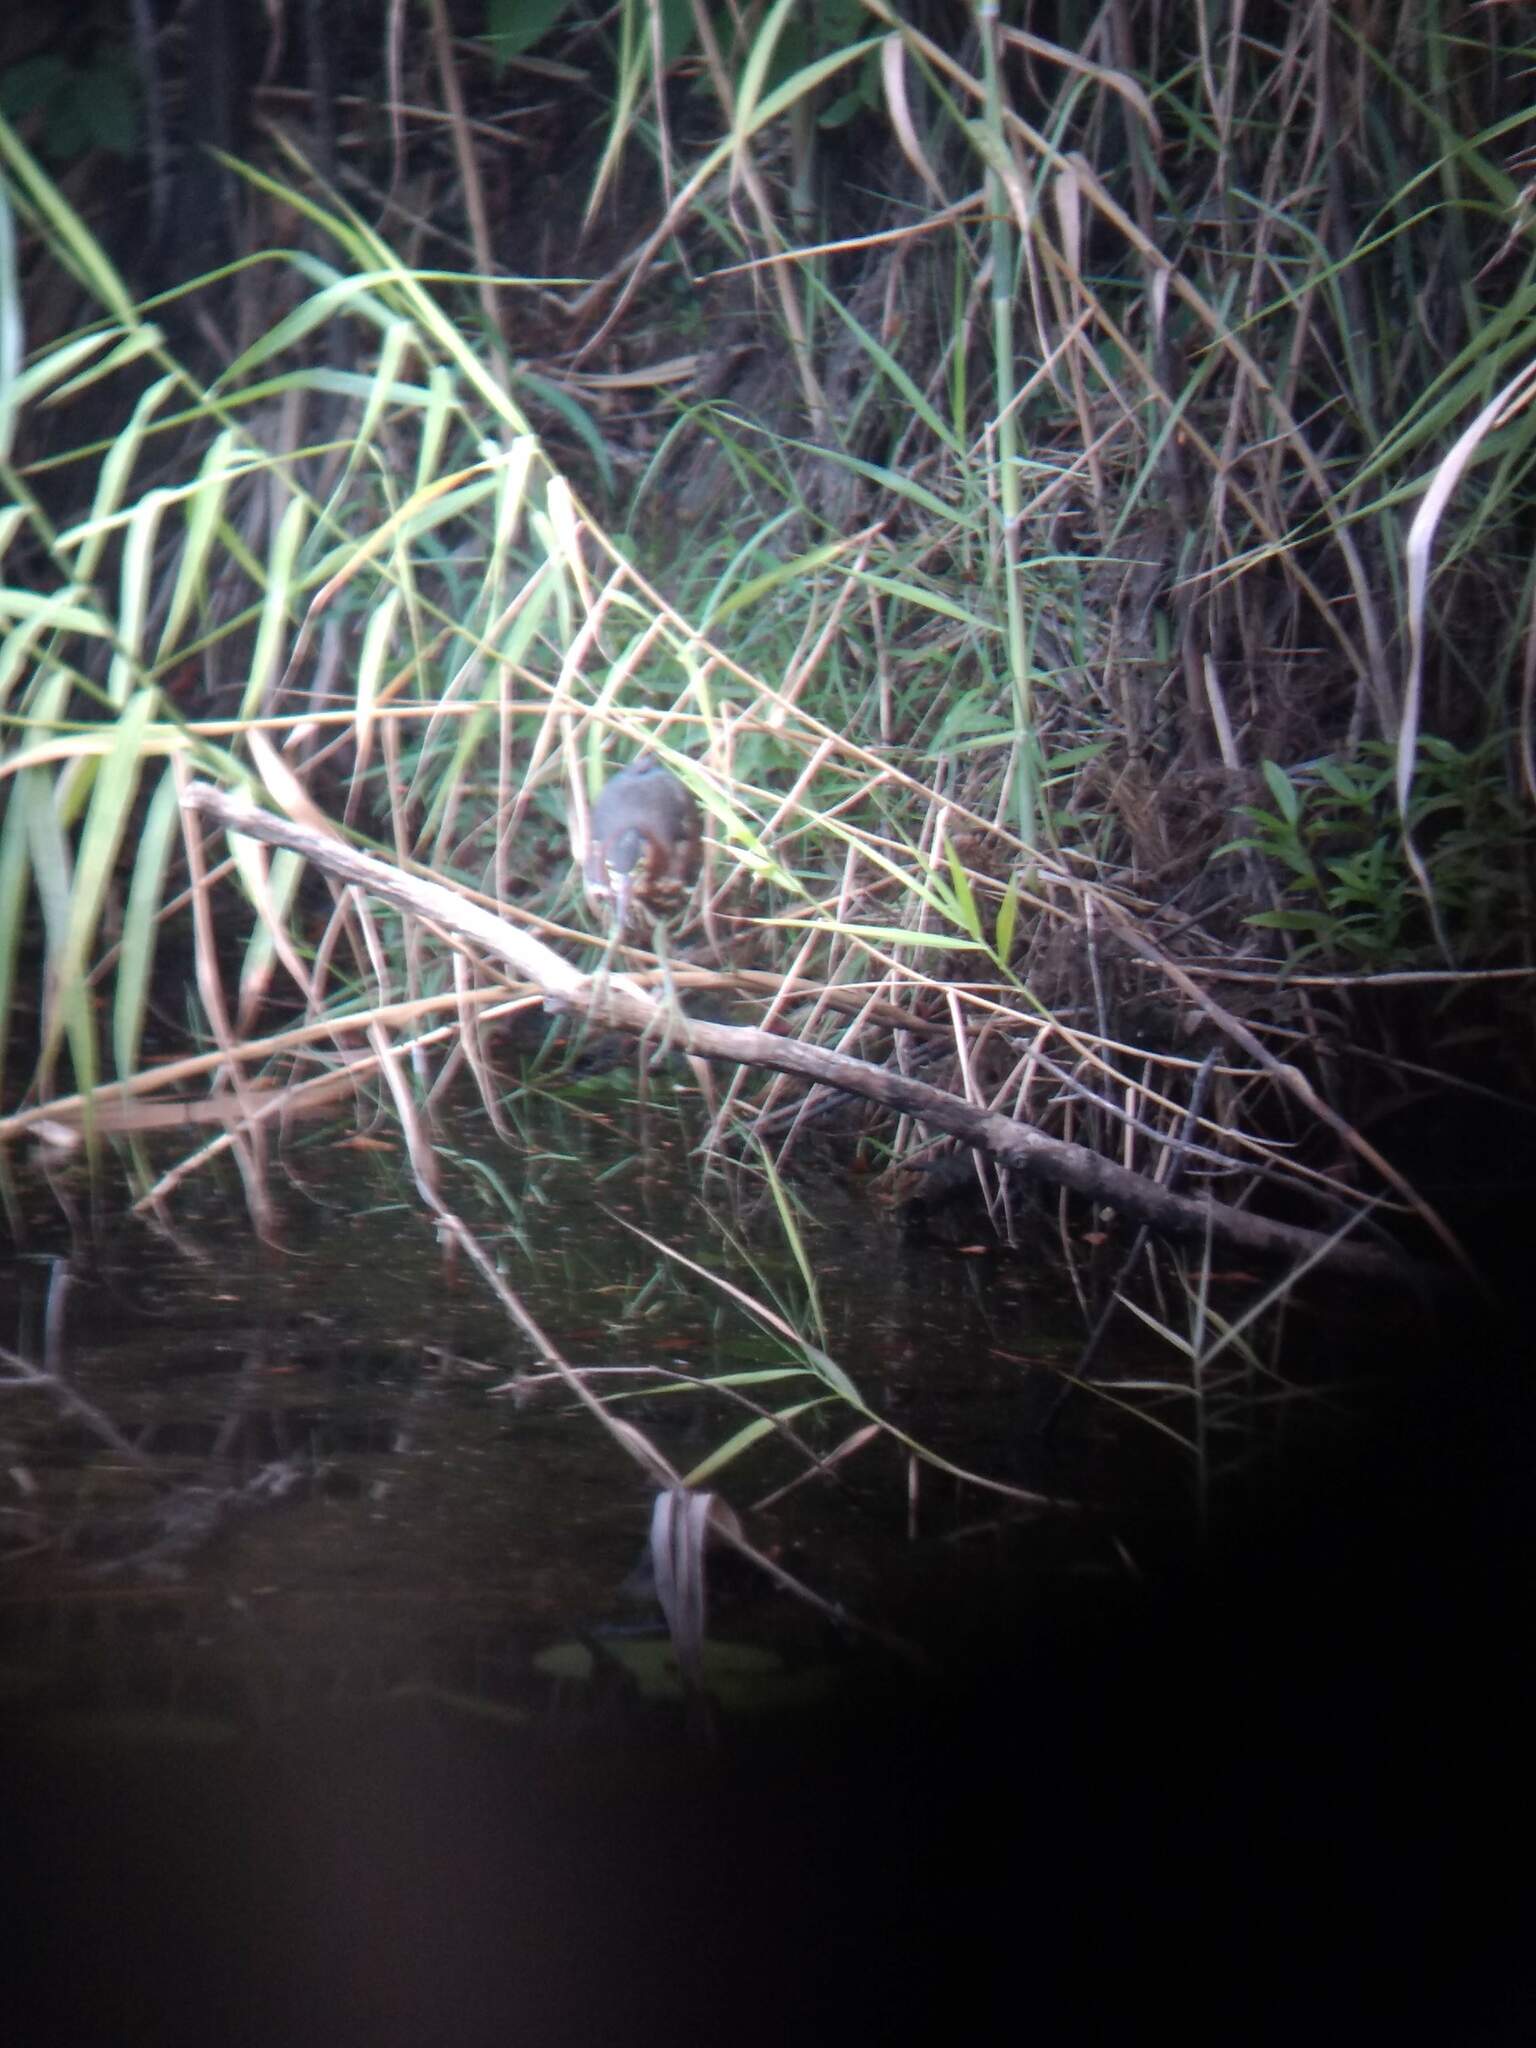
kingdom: Animalia
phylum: Chordata
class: Aves
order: Pelecaniformes
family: Ardeidae
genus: Butorides
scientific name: Butorides virescens
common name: Green heron
